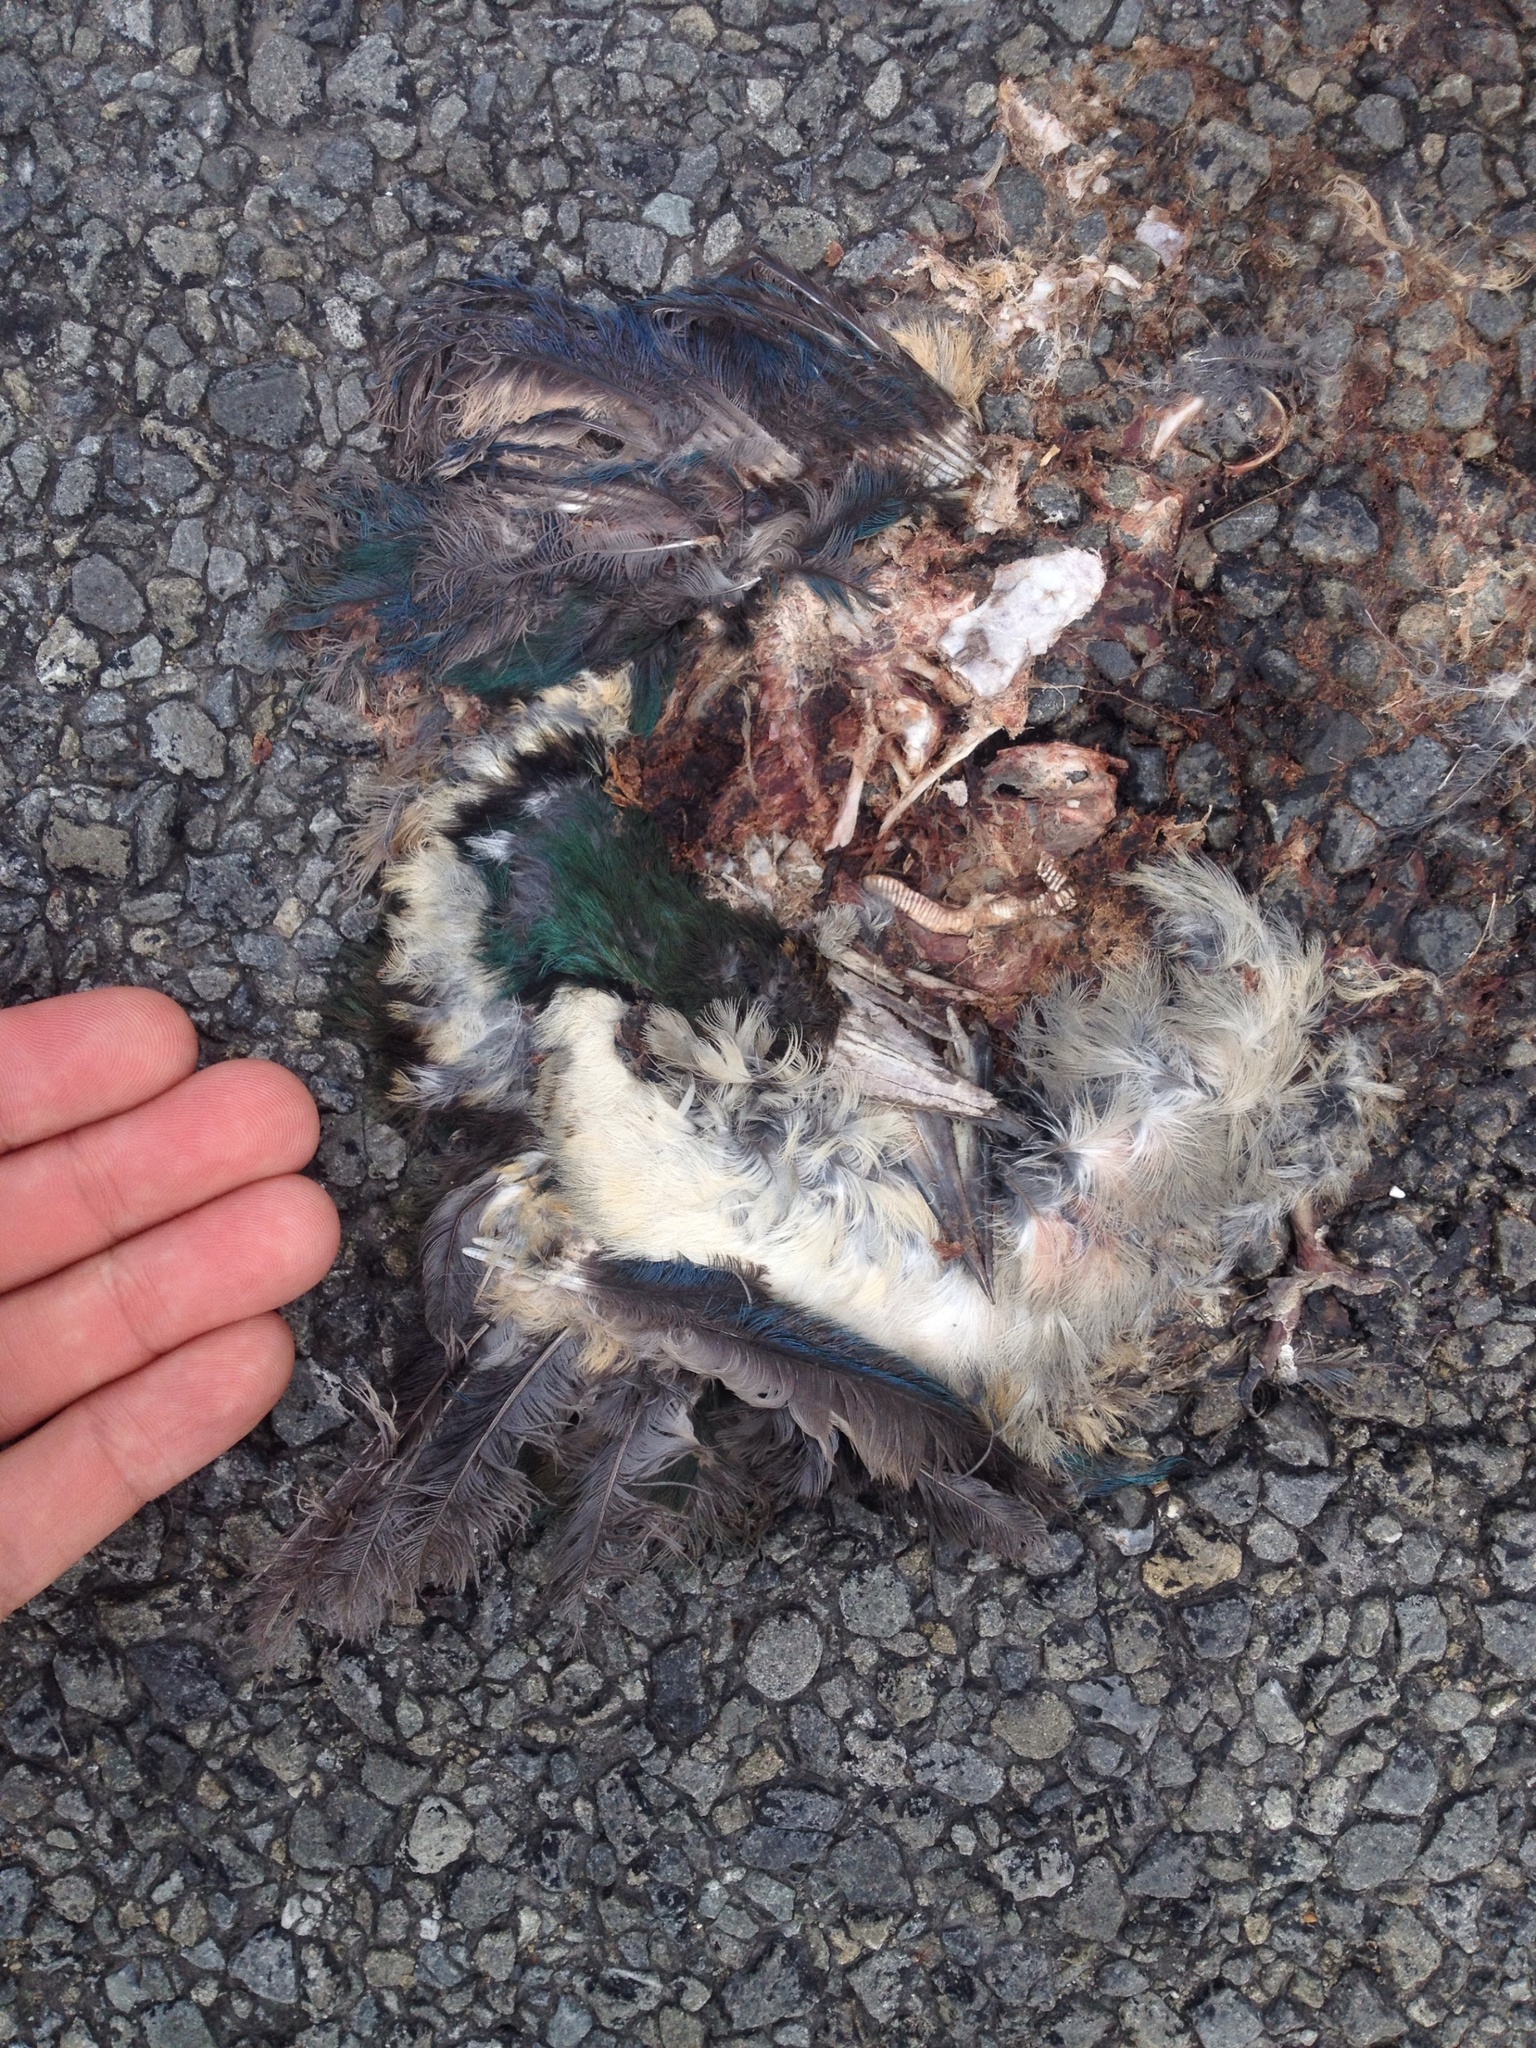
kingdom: Animalia
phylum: Chordata
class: Aves
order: Coraciiformes
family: Alcedinidae
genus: Todiramphus
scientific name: Todiramphus sanctus
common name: Sacred kingfisher
